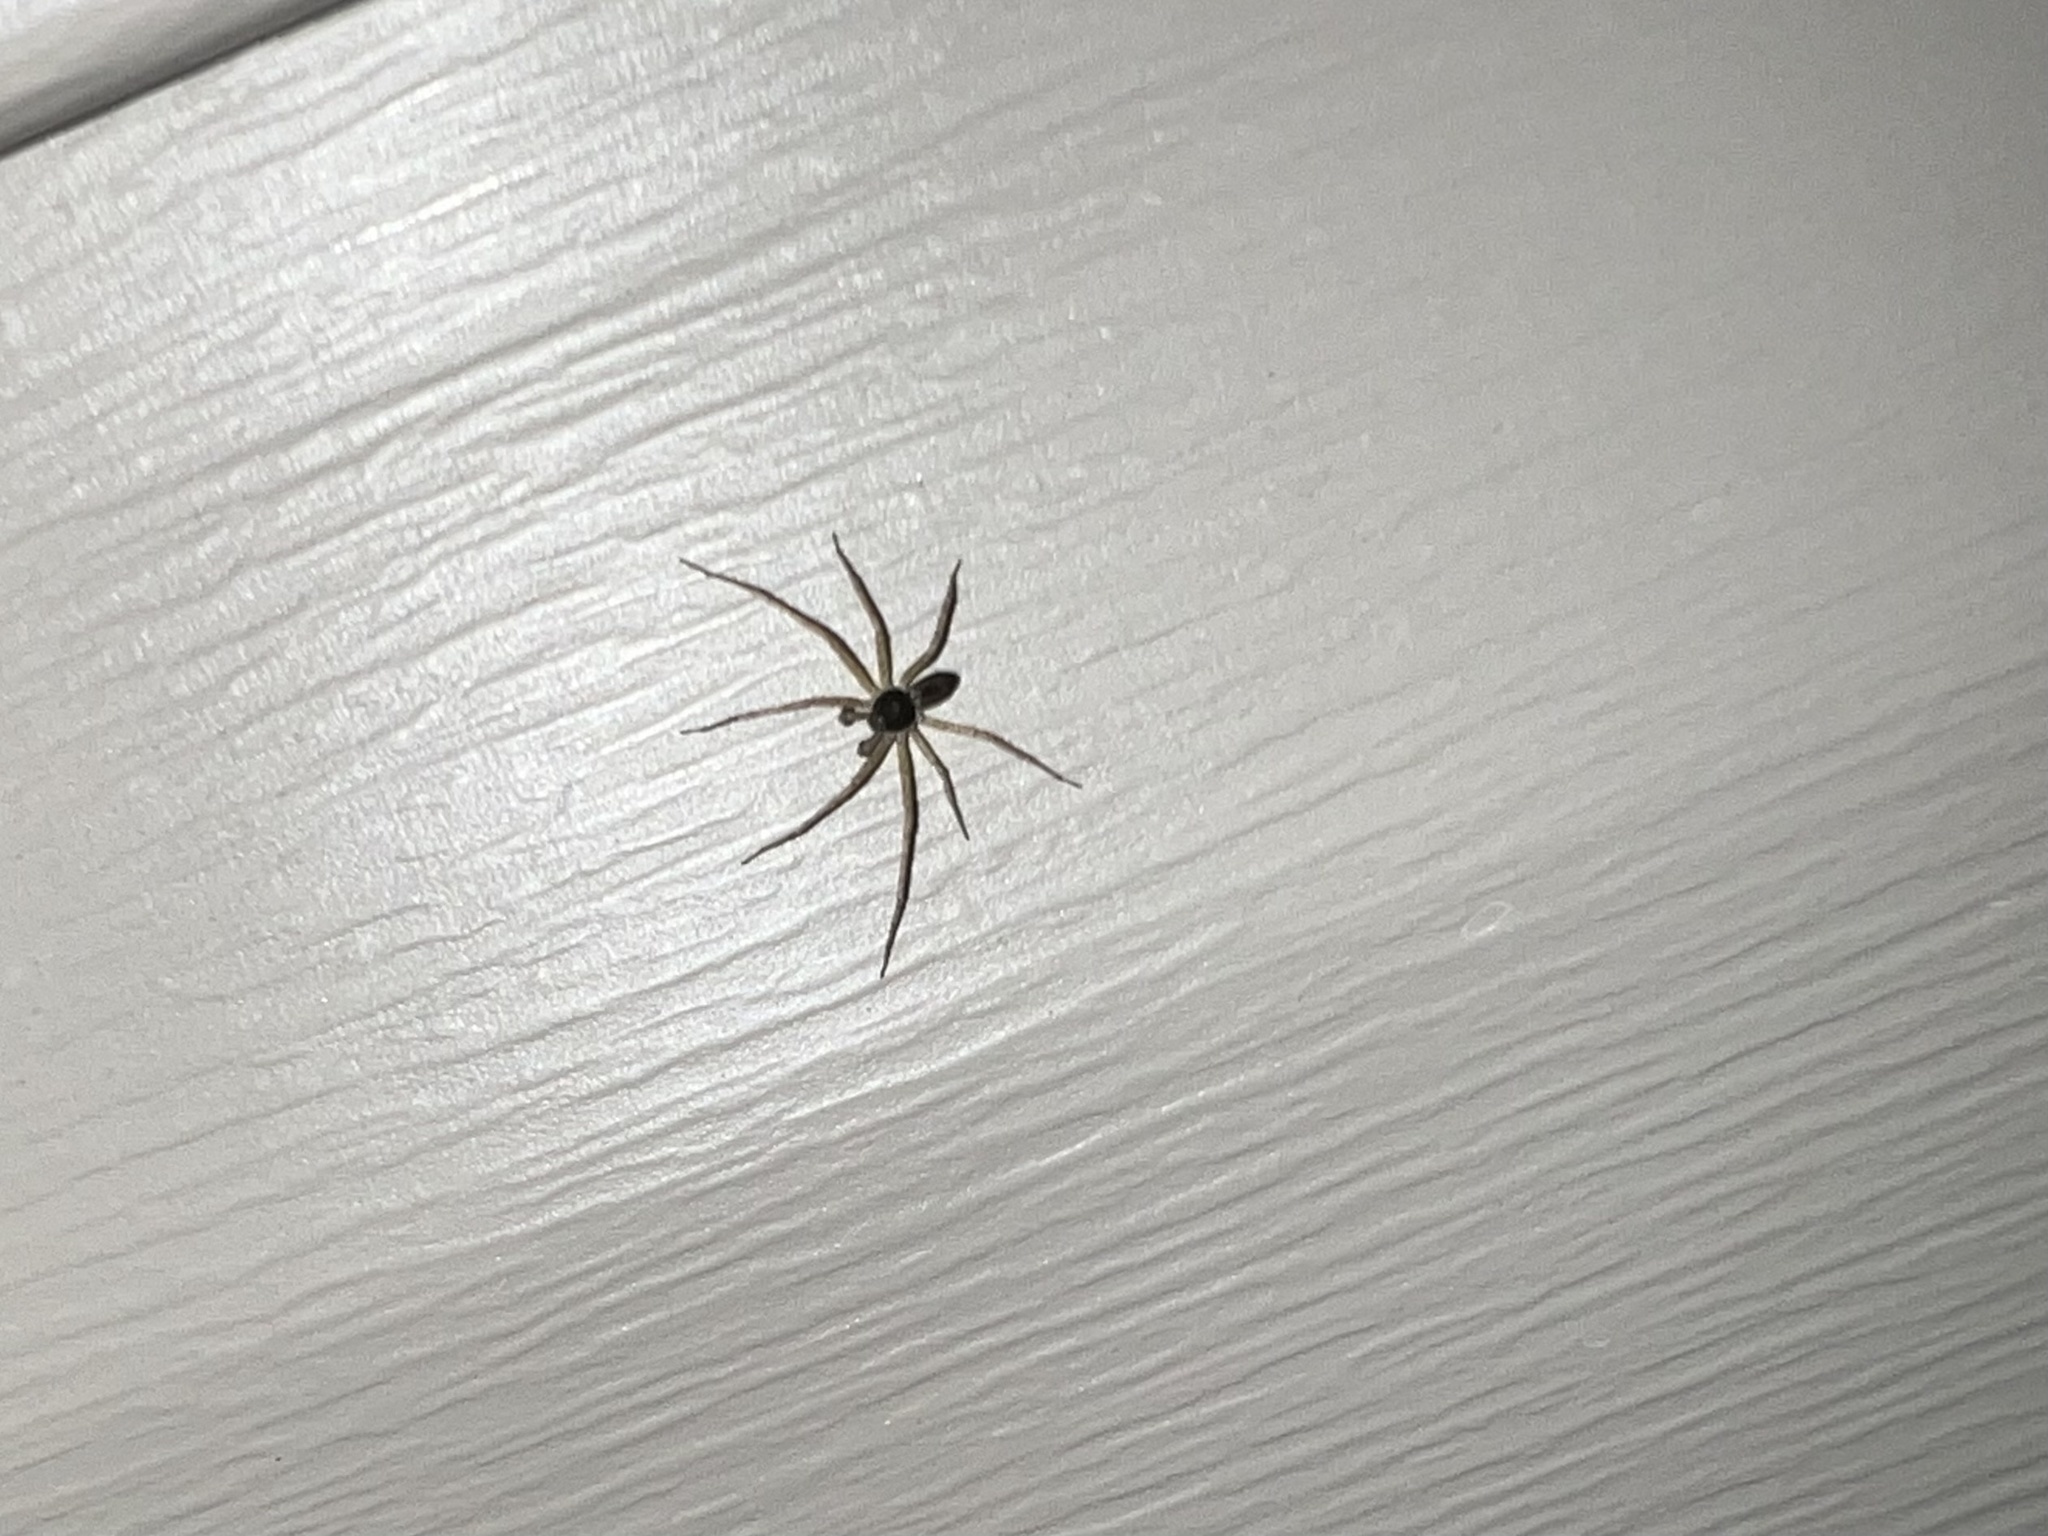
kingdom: Animalia
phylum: Arthropoda
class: Arachnida
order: Araneae
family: Philodromidae
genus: Philodromus
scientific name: Philodromus dispar
